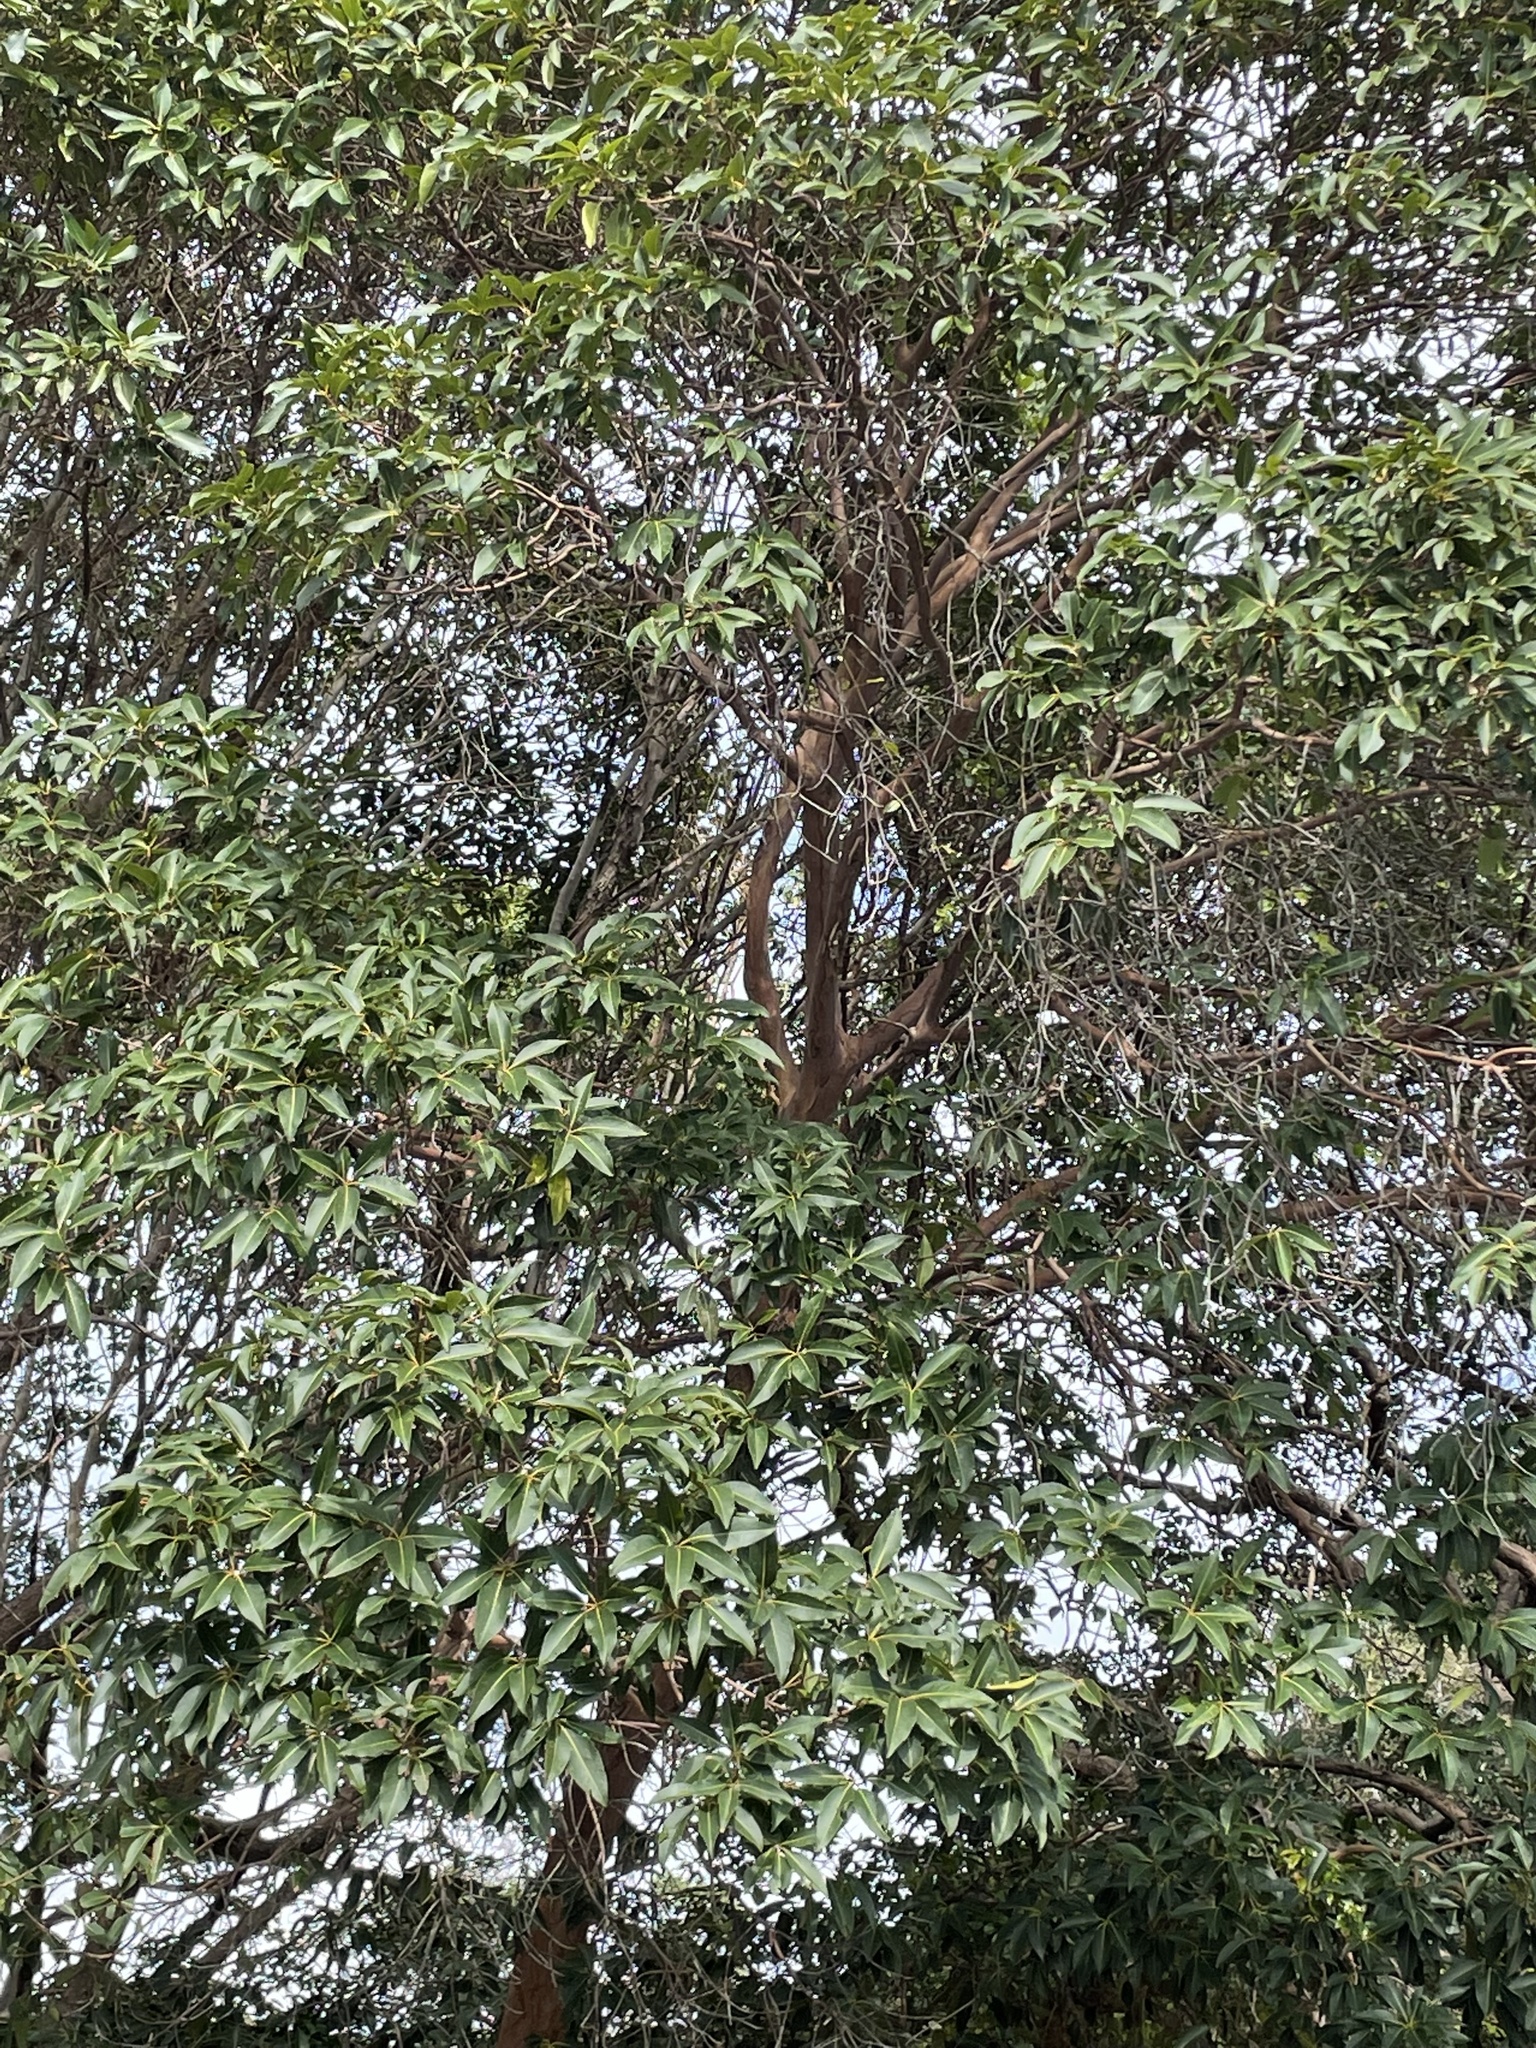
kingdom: Plantae
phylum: Tracheophyta
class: Magnoliopsida
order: Myrtales
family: Myrtaceae
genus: Lophostemon
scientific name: Lophostemon confertus
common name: Brisbane box
